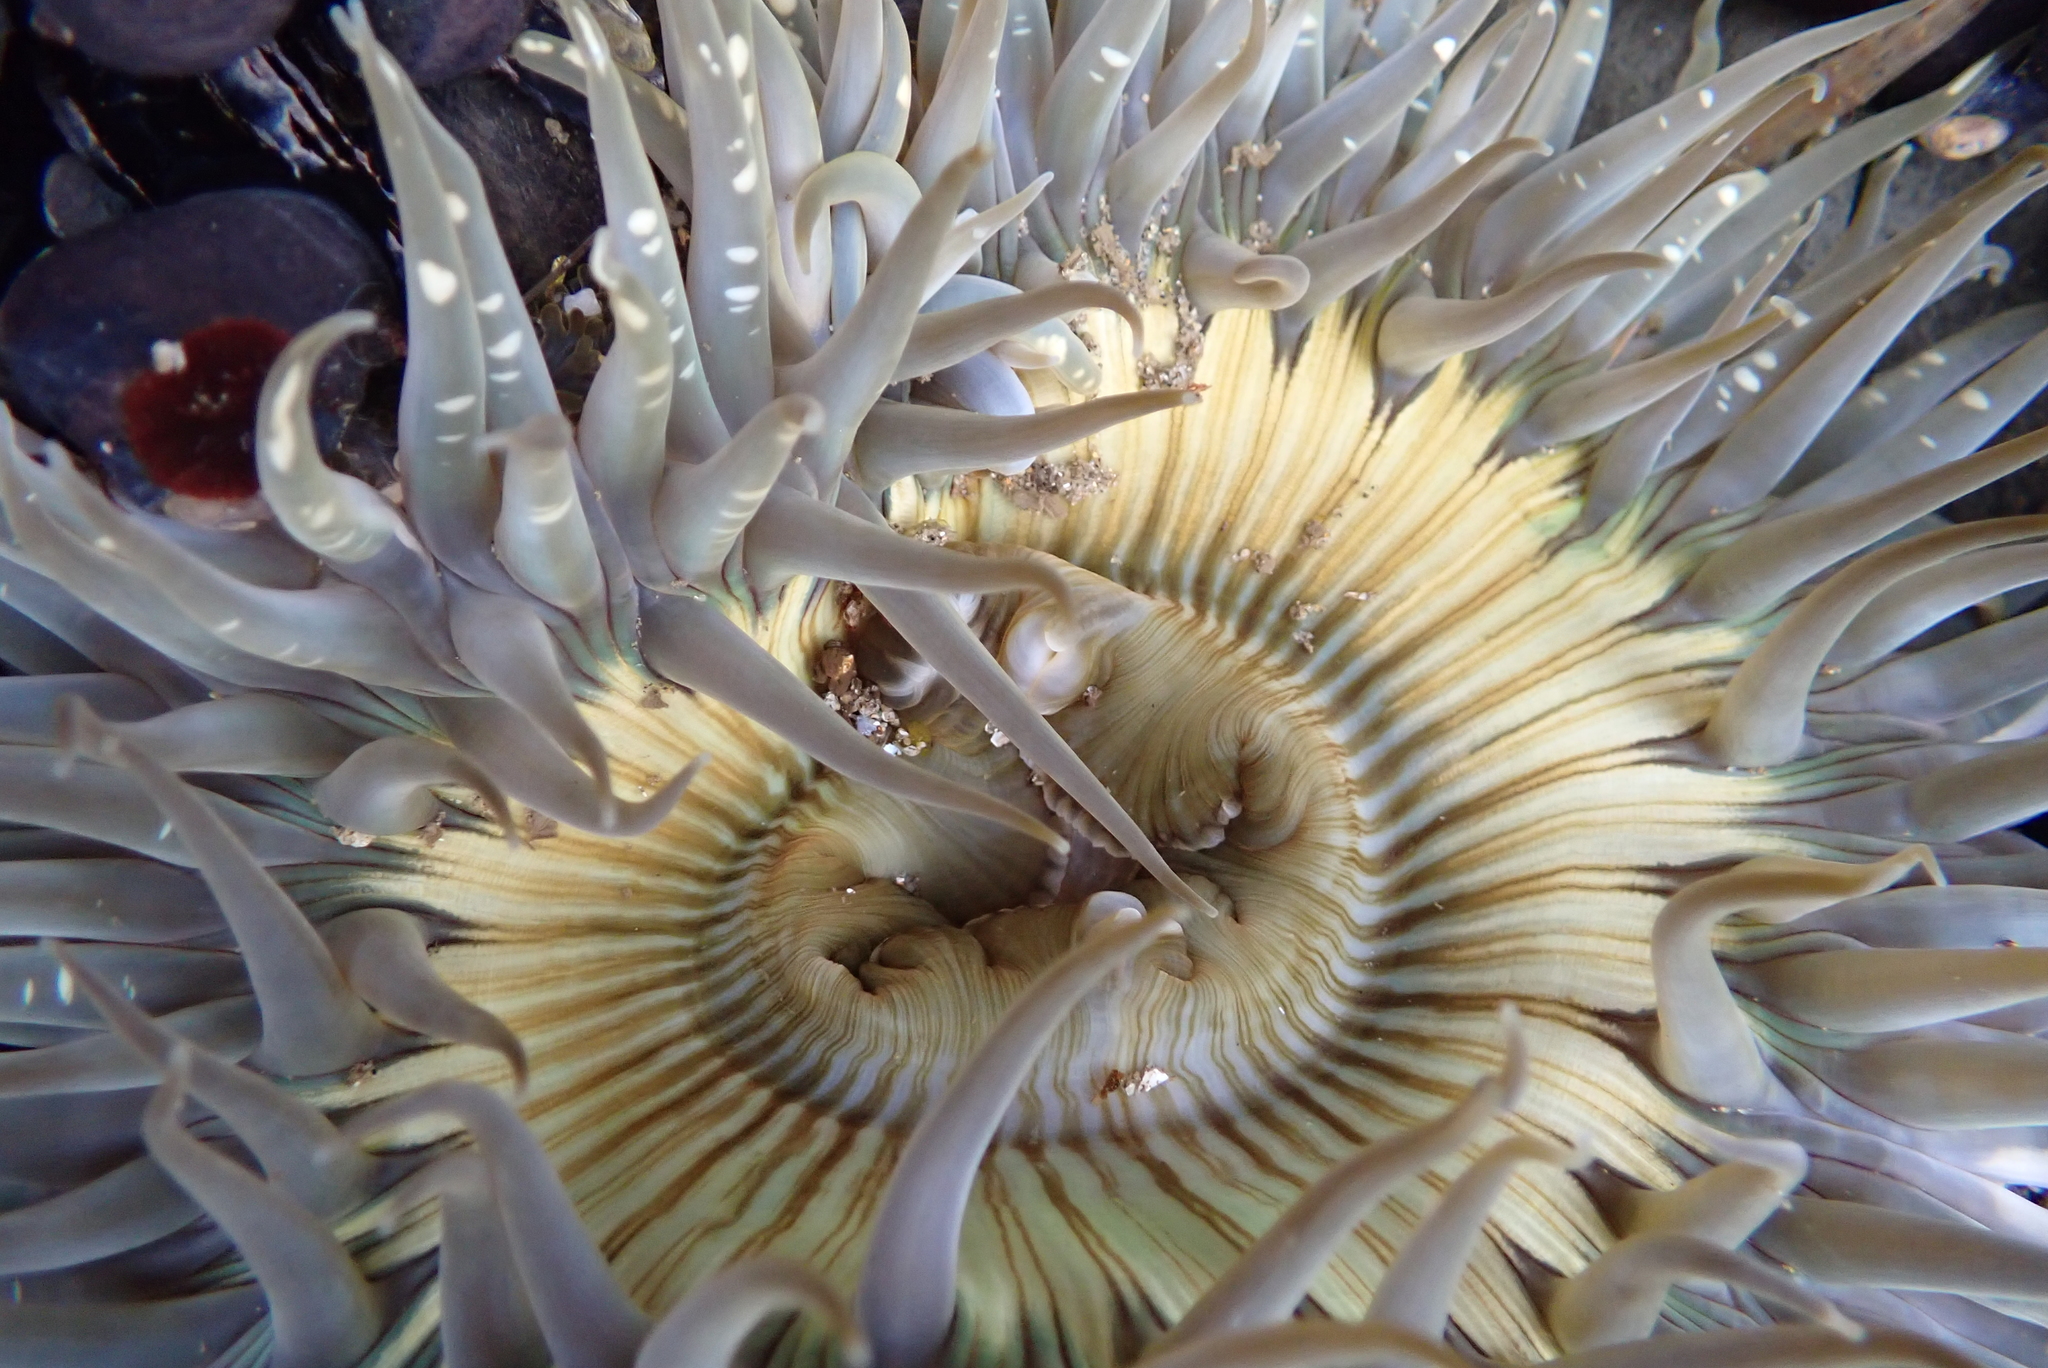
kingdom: Animalia
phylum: Cnidaria
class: Anthozoa
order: Actiniaria
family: Actiniidae
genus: Anthopleura
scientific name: Anthopleura sola
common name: Sun anemone
